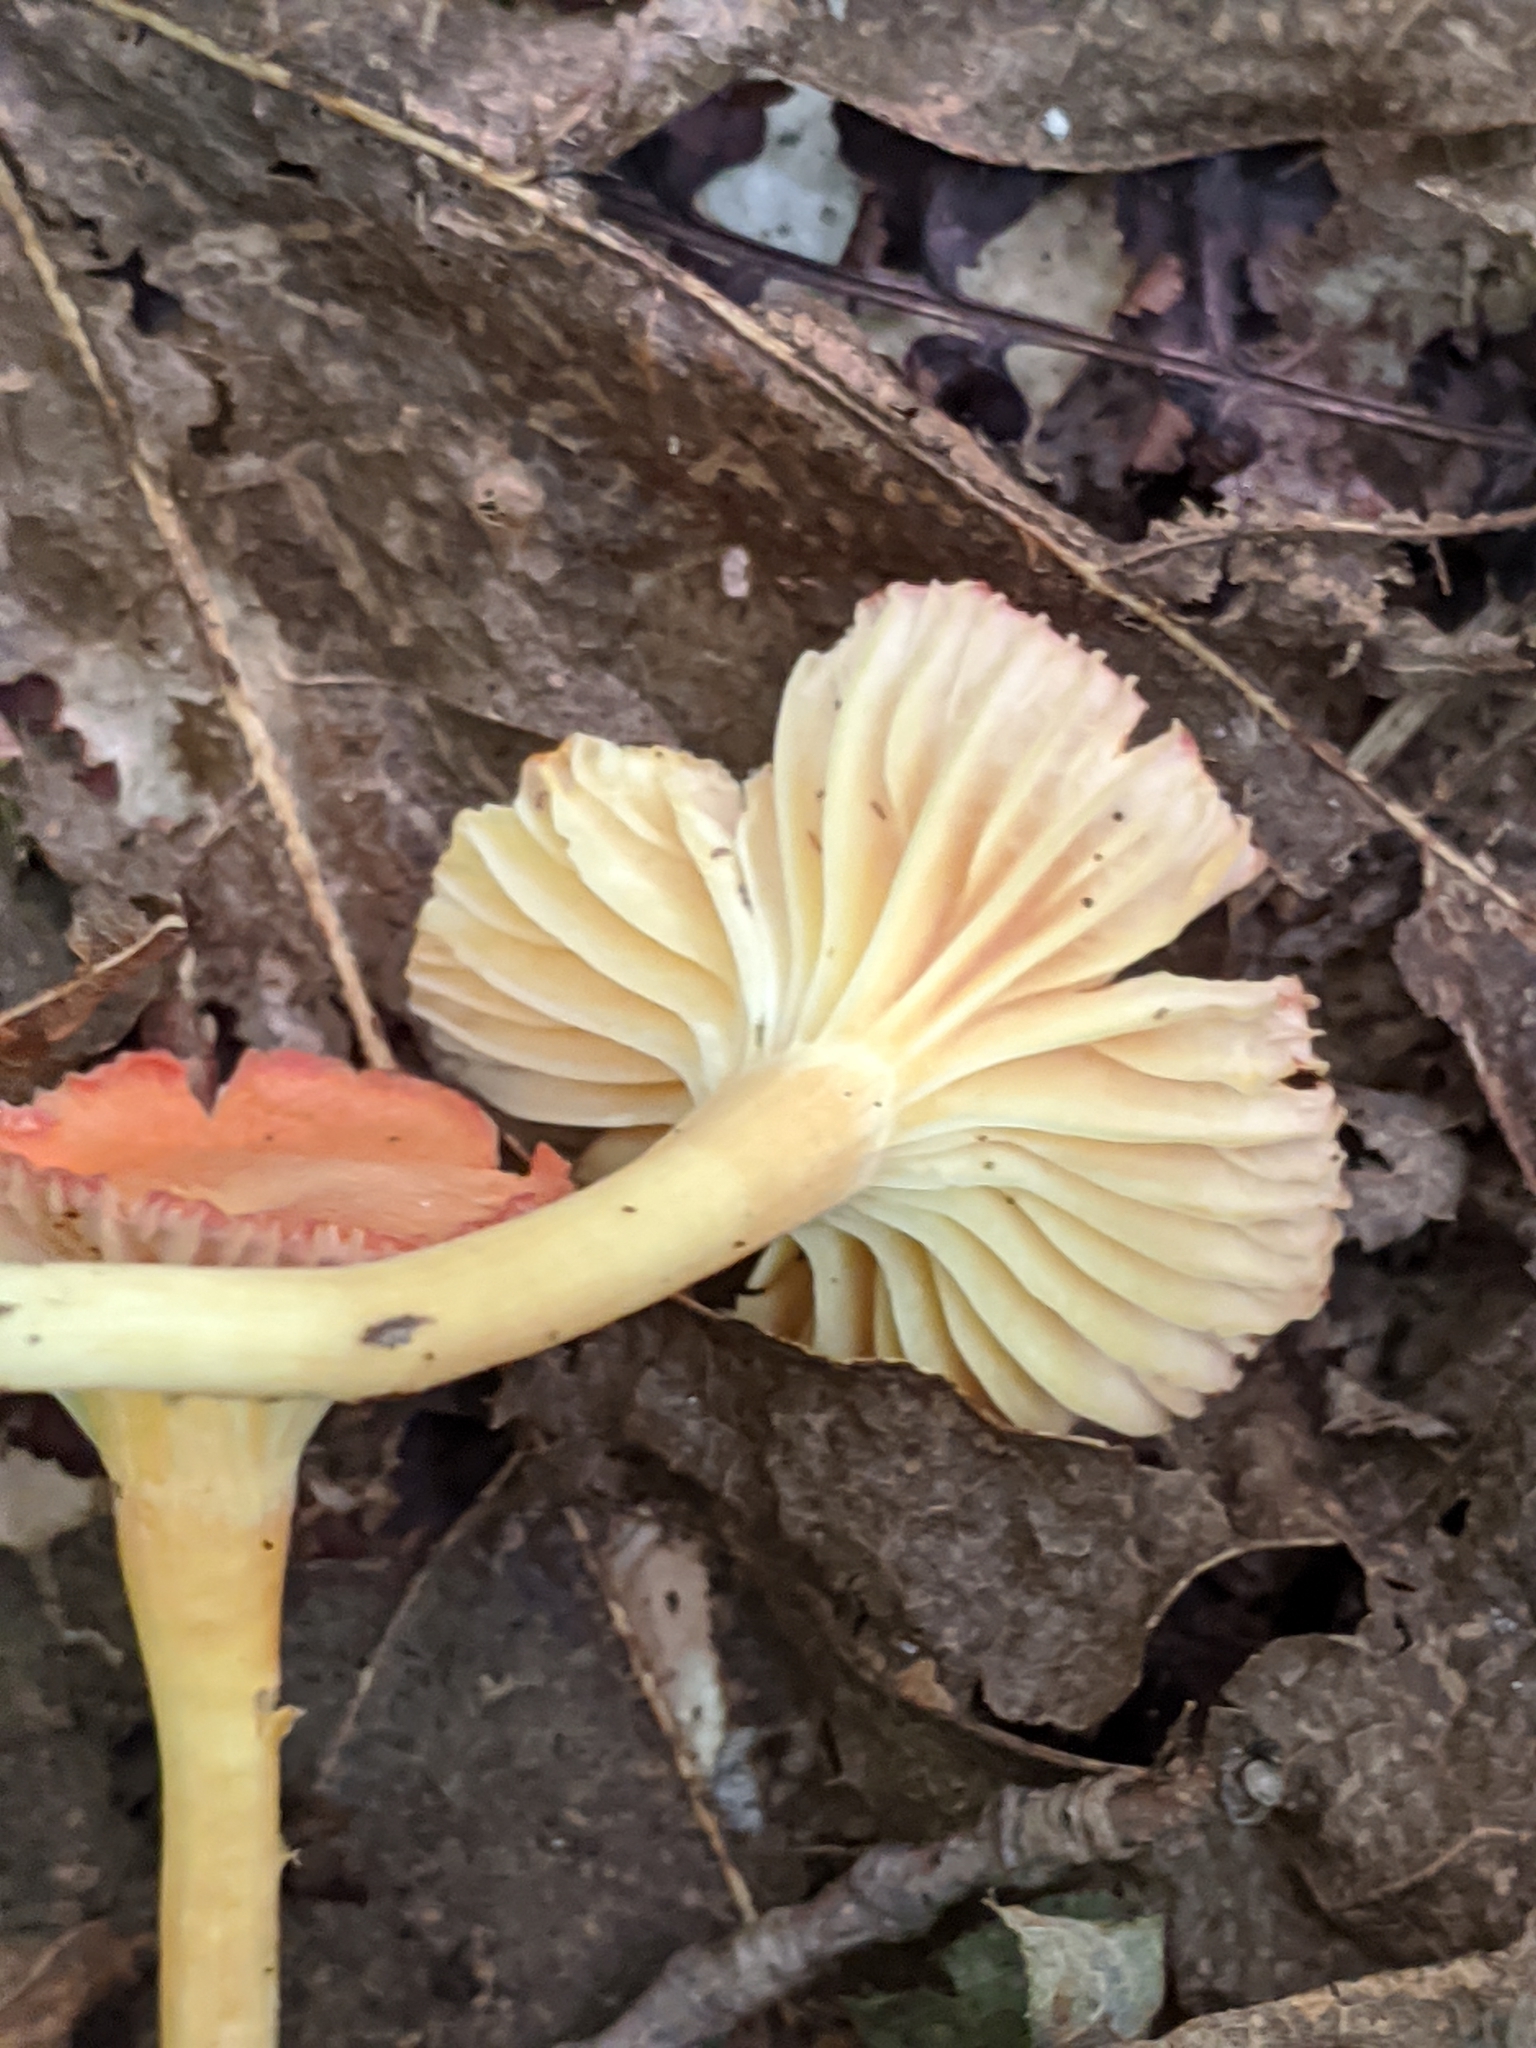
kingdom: Fungi
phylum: Basidiomycota
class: Agaricomycetes
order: Agaricales
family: Hygrophoraceae
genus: Cuphophyllus
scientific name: Cuphophyllus pratensis
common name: Meadow waxcap
